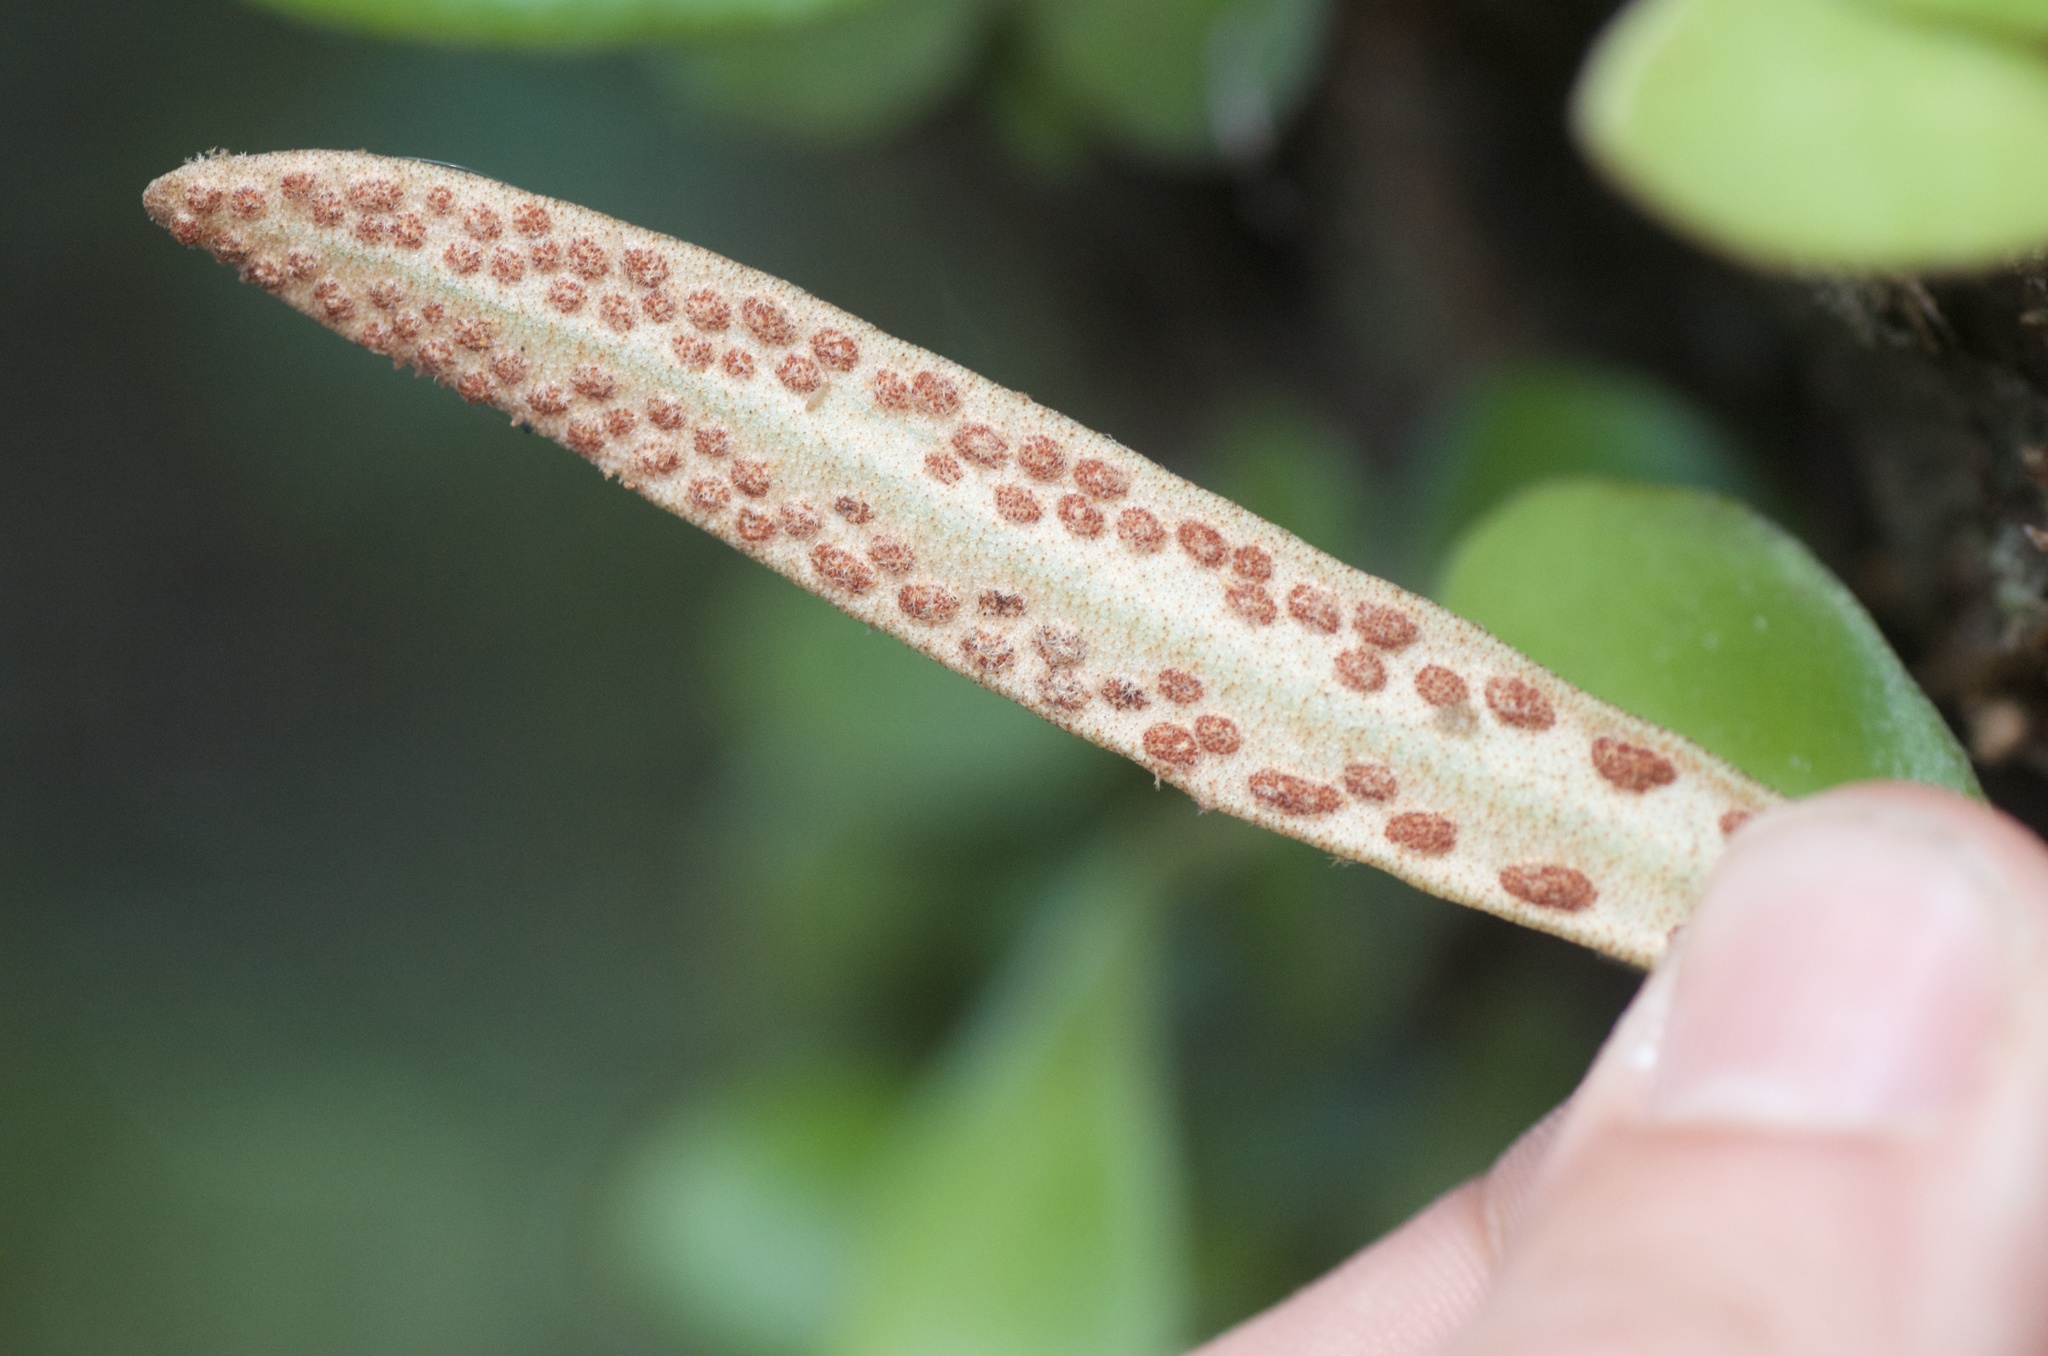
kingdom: Plantae
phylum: Tracheophyta
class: Polypodiopsida
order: Polypodiales
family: Polypodiaceae
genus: Pyrrosia
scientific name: Pyrrosia eleagnifolia
